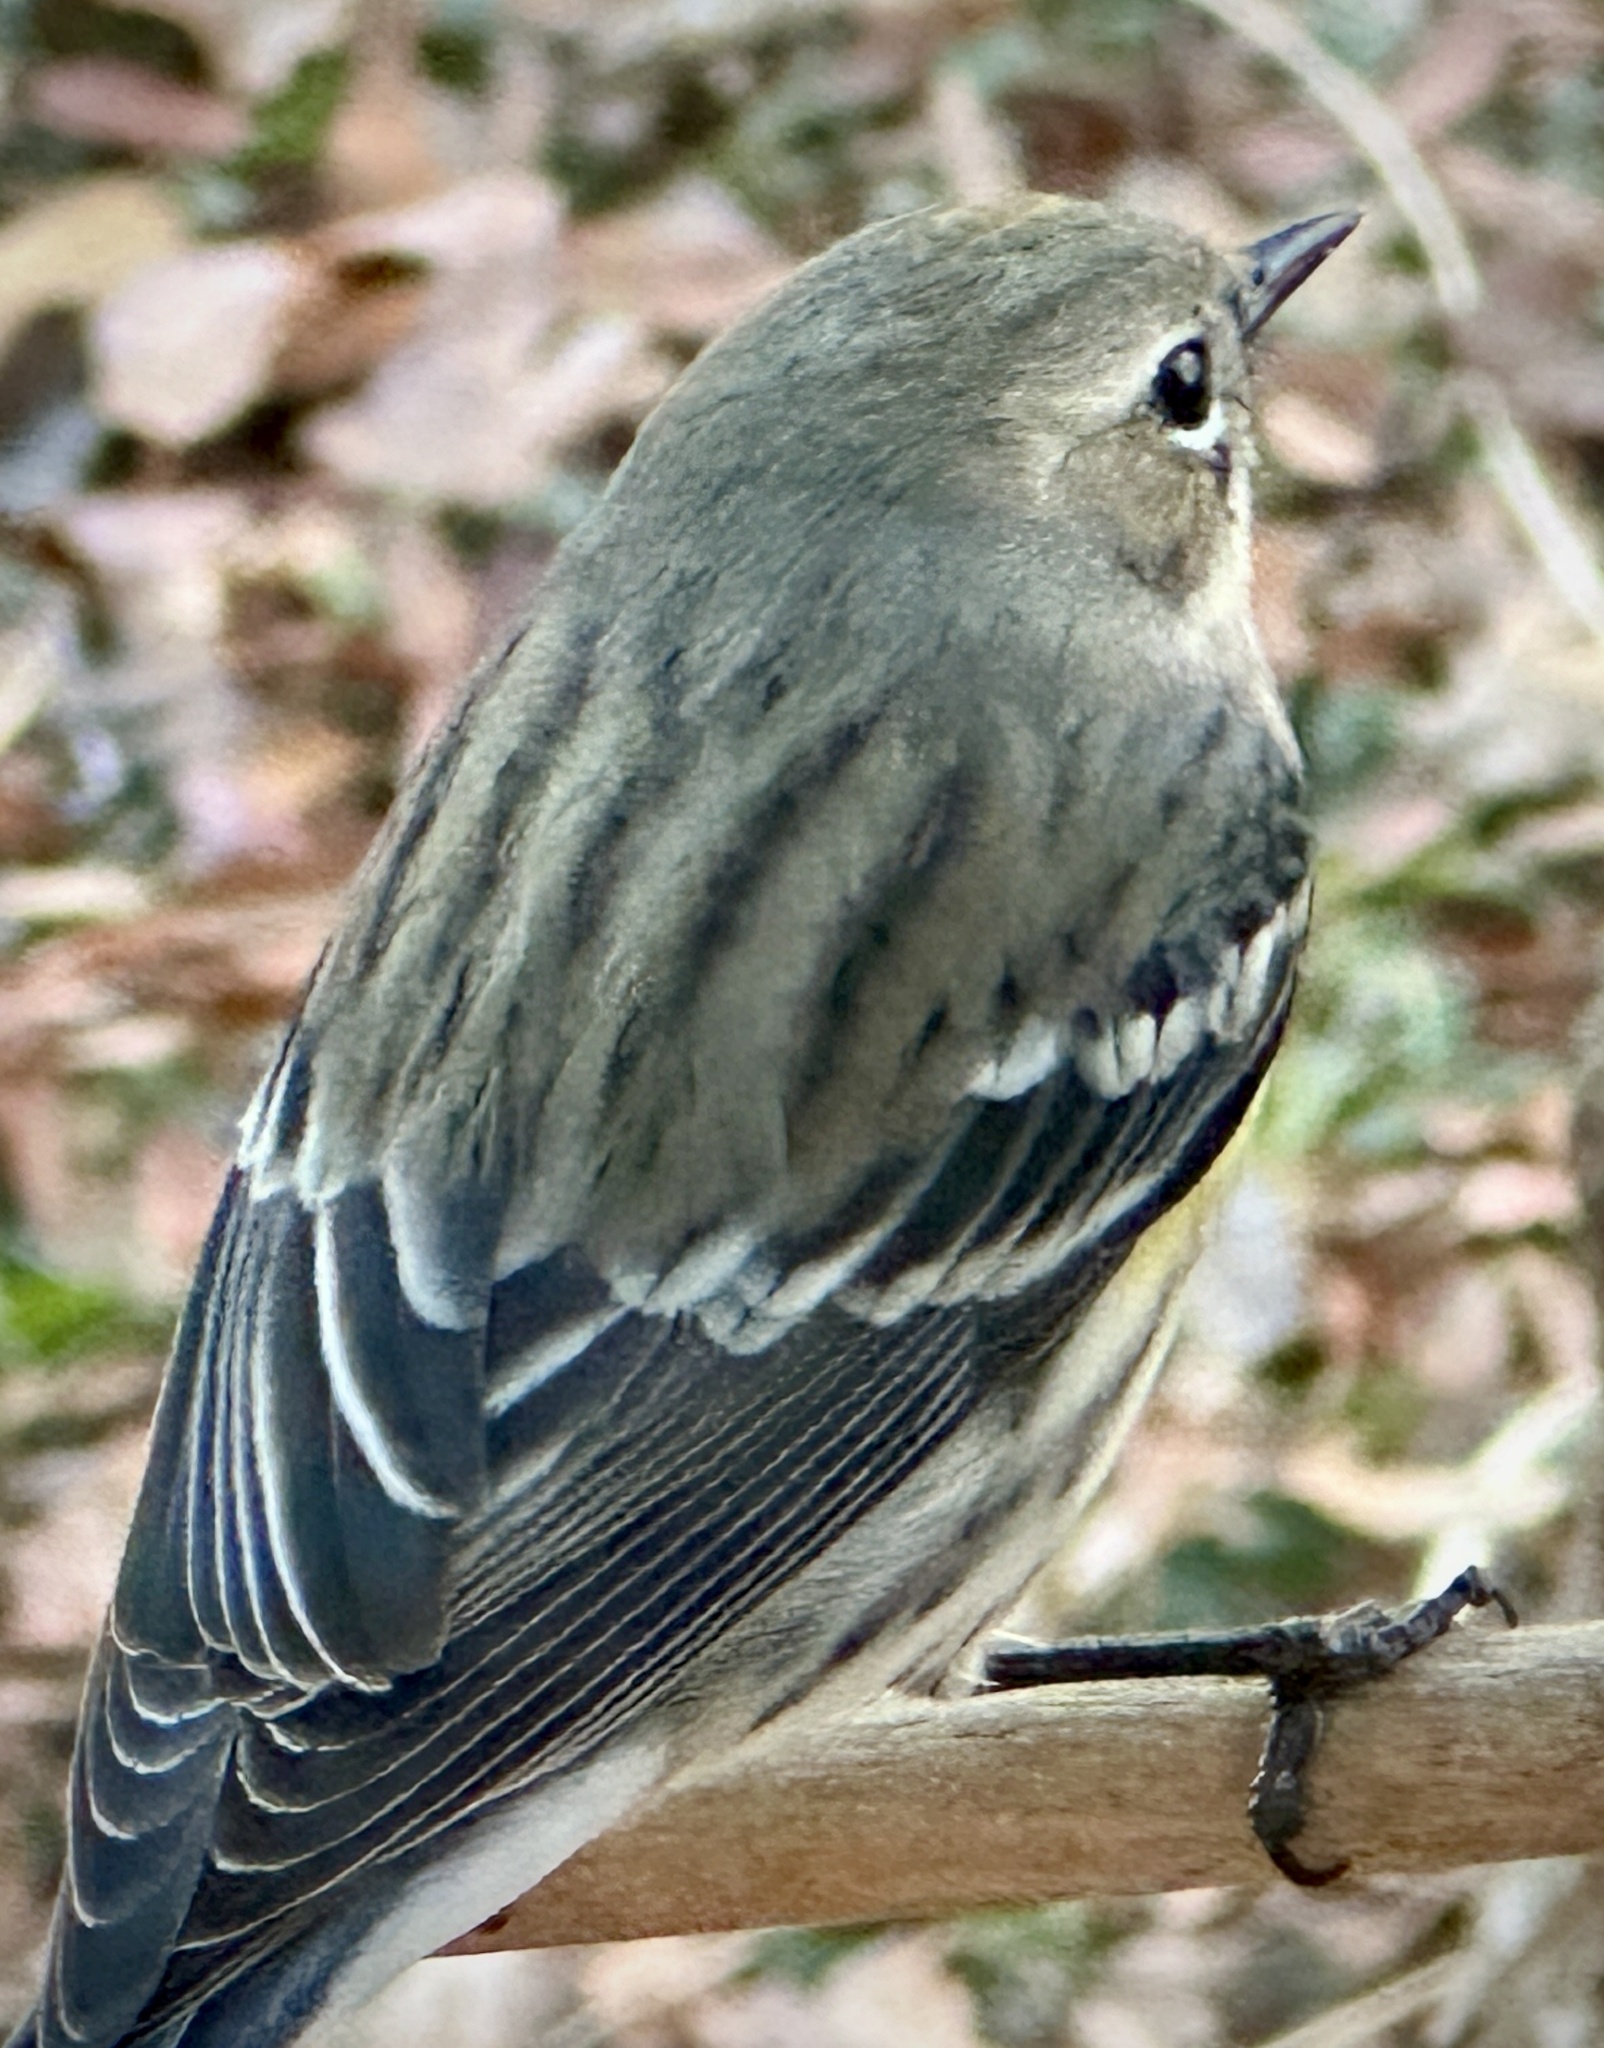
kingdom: Animalia
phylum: Chordata
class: Aves
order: Passeriformes
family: Parulidae
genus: Setophaga
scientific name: Setophaga coronata
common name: Myrtle warbler
